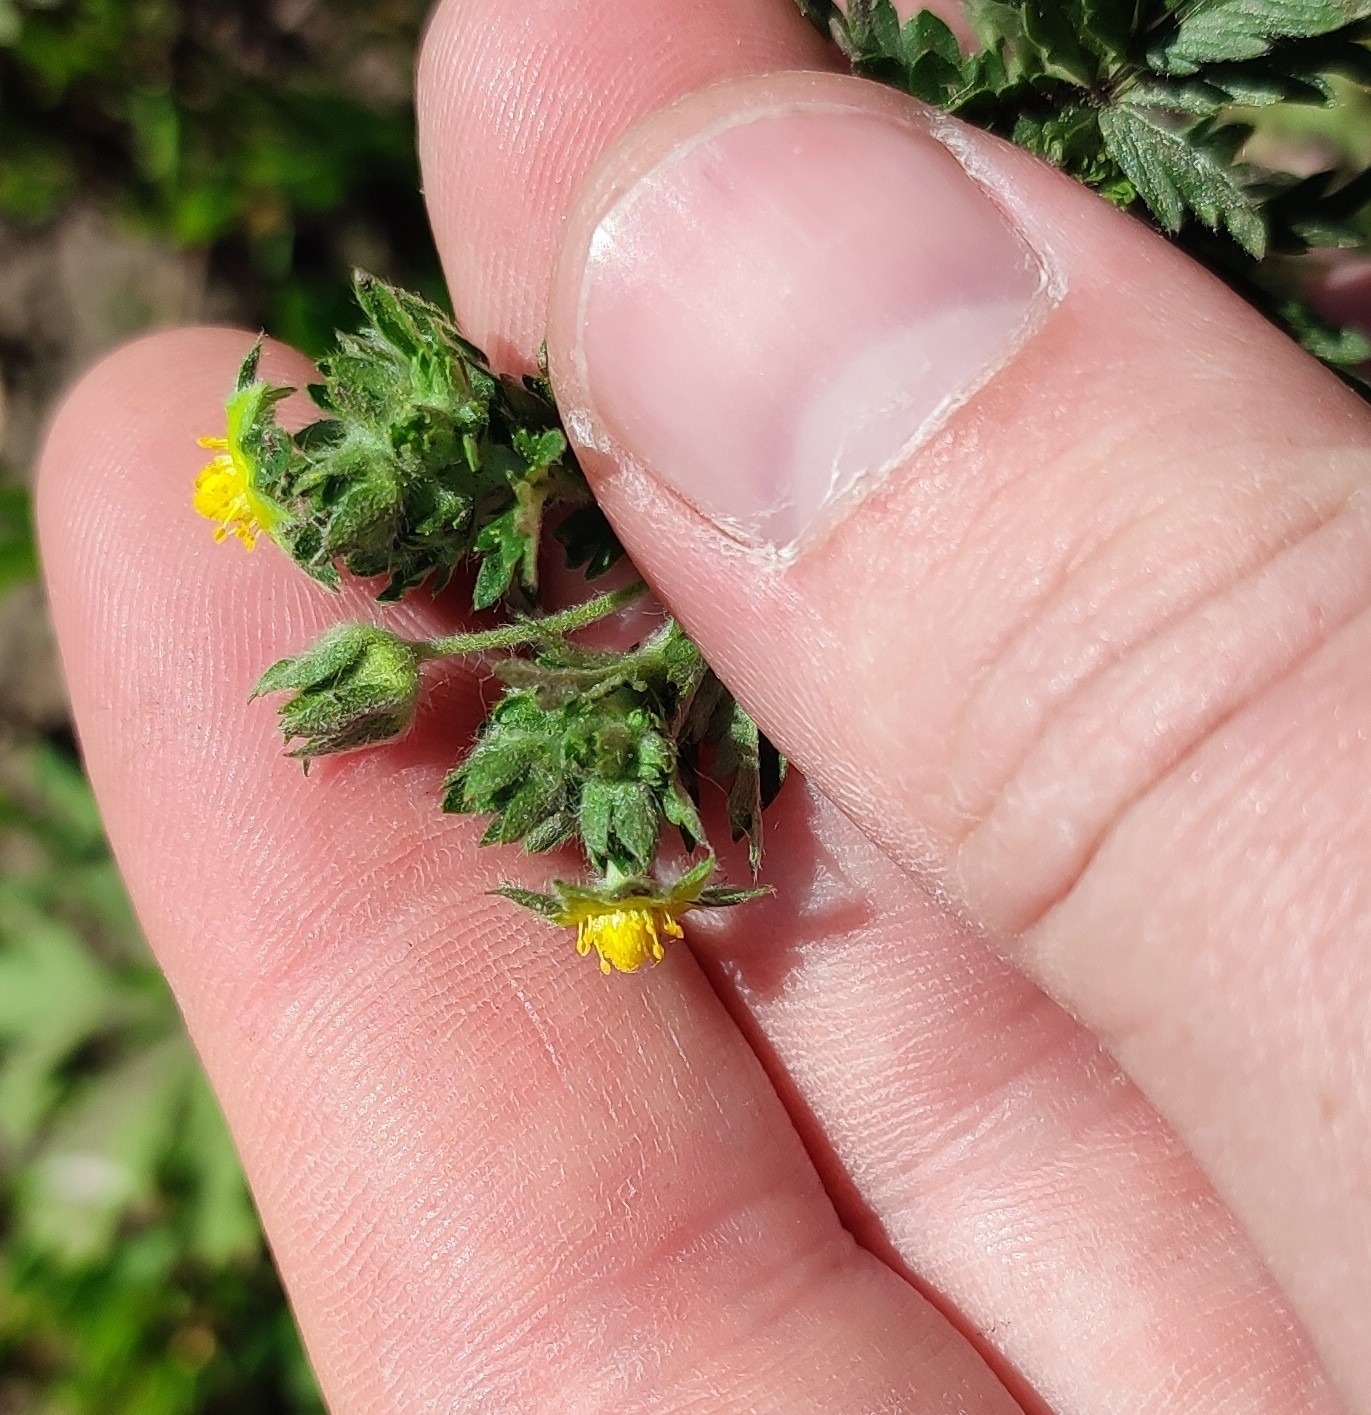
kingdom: Plantae
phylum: Tracheophyta
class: Magnoliopsida
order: Rosales
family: Rosaceae
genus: Potentilla
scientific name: Potentilla tobolensis
